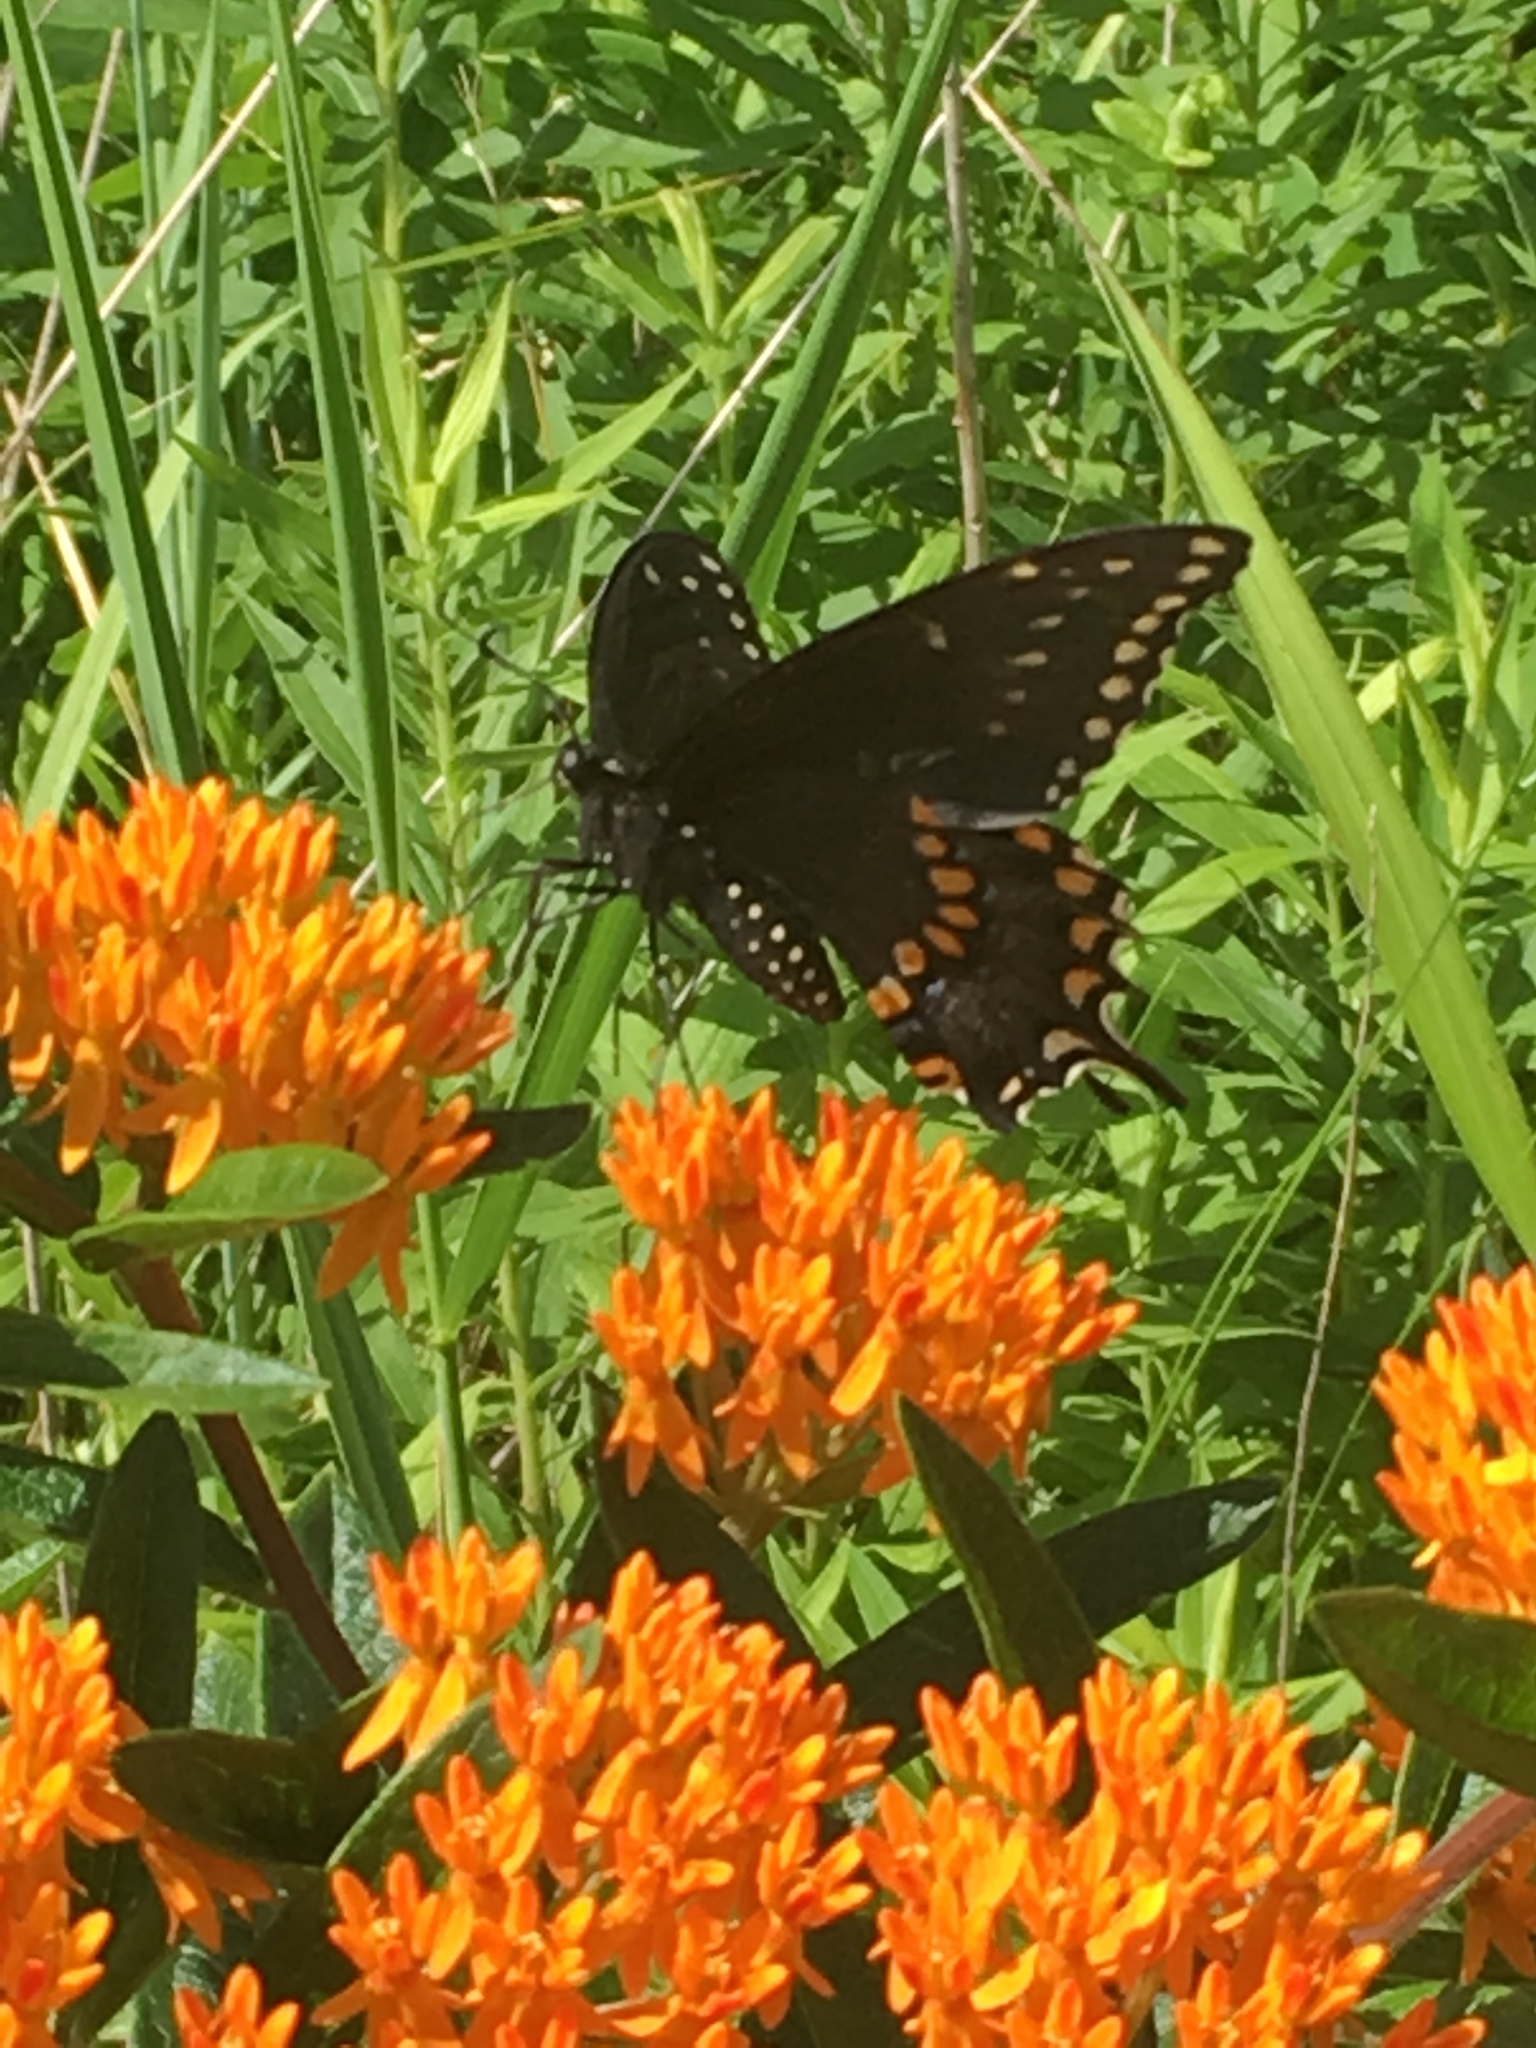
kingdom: Animalia
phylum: Arthropoda
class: Insecta
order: Lepidoptera
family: Papilionidae
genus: Papilio
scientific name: Papilio polyxenes
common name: Black swallowtail
